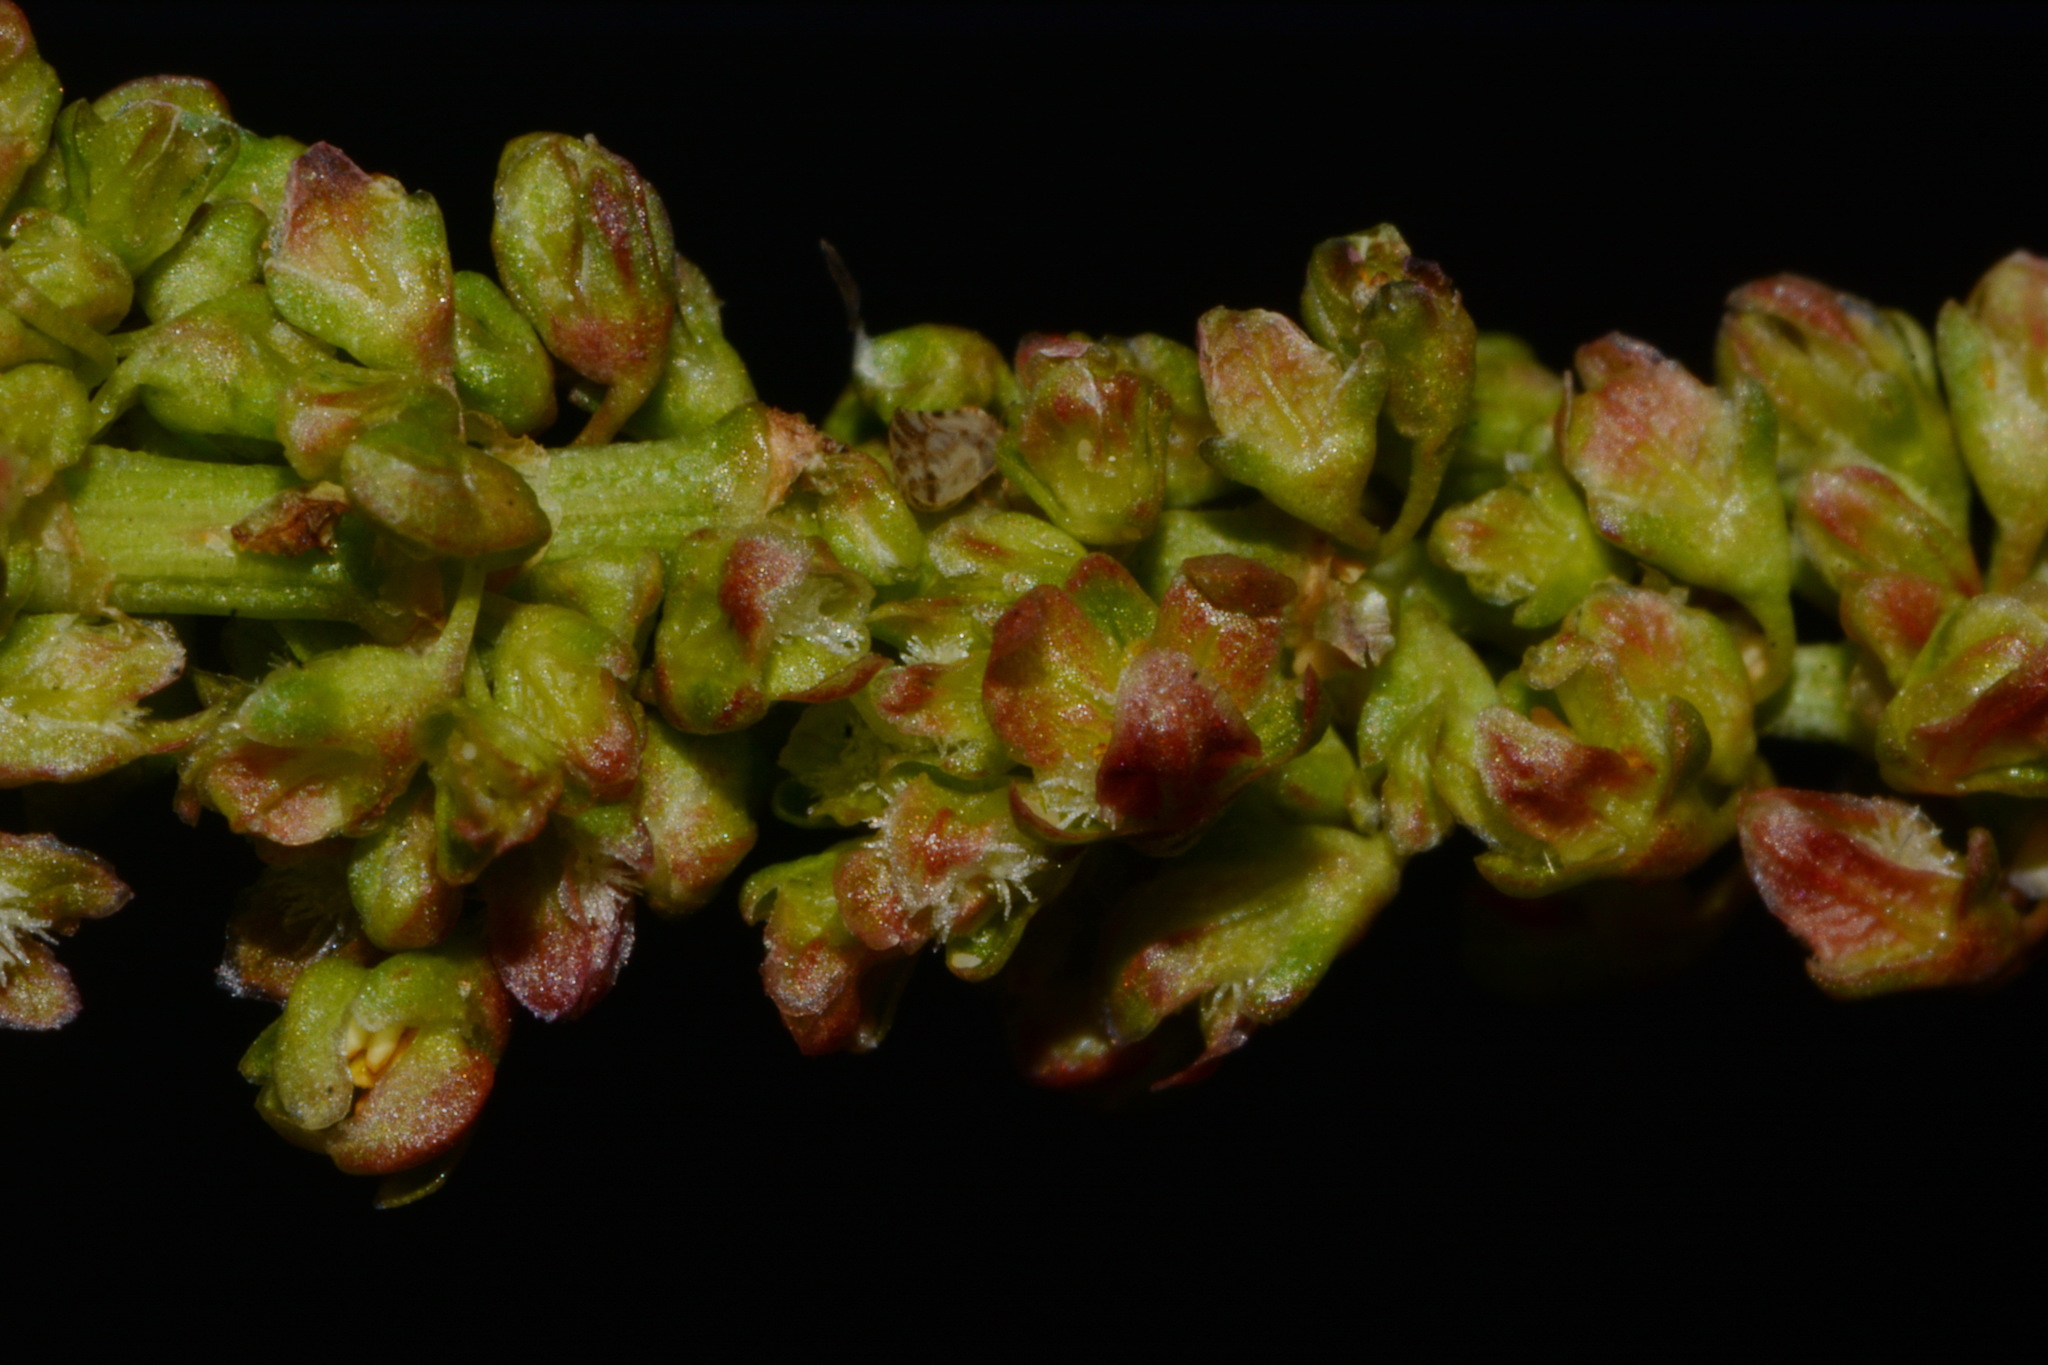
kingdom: Plantae
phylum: Tracheophyta
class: Magnoliopsida
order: Caryophyllales
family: Polygonaceae
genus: Rumex
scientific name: Rumex triangulivalvis
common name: Triangular-valve dock
